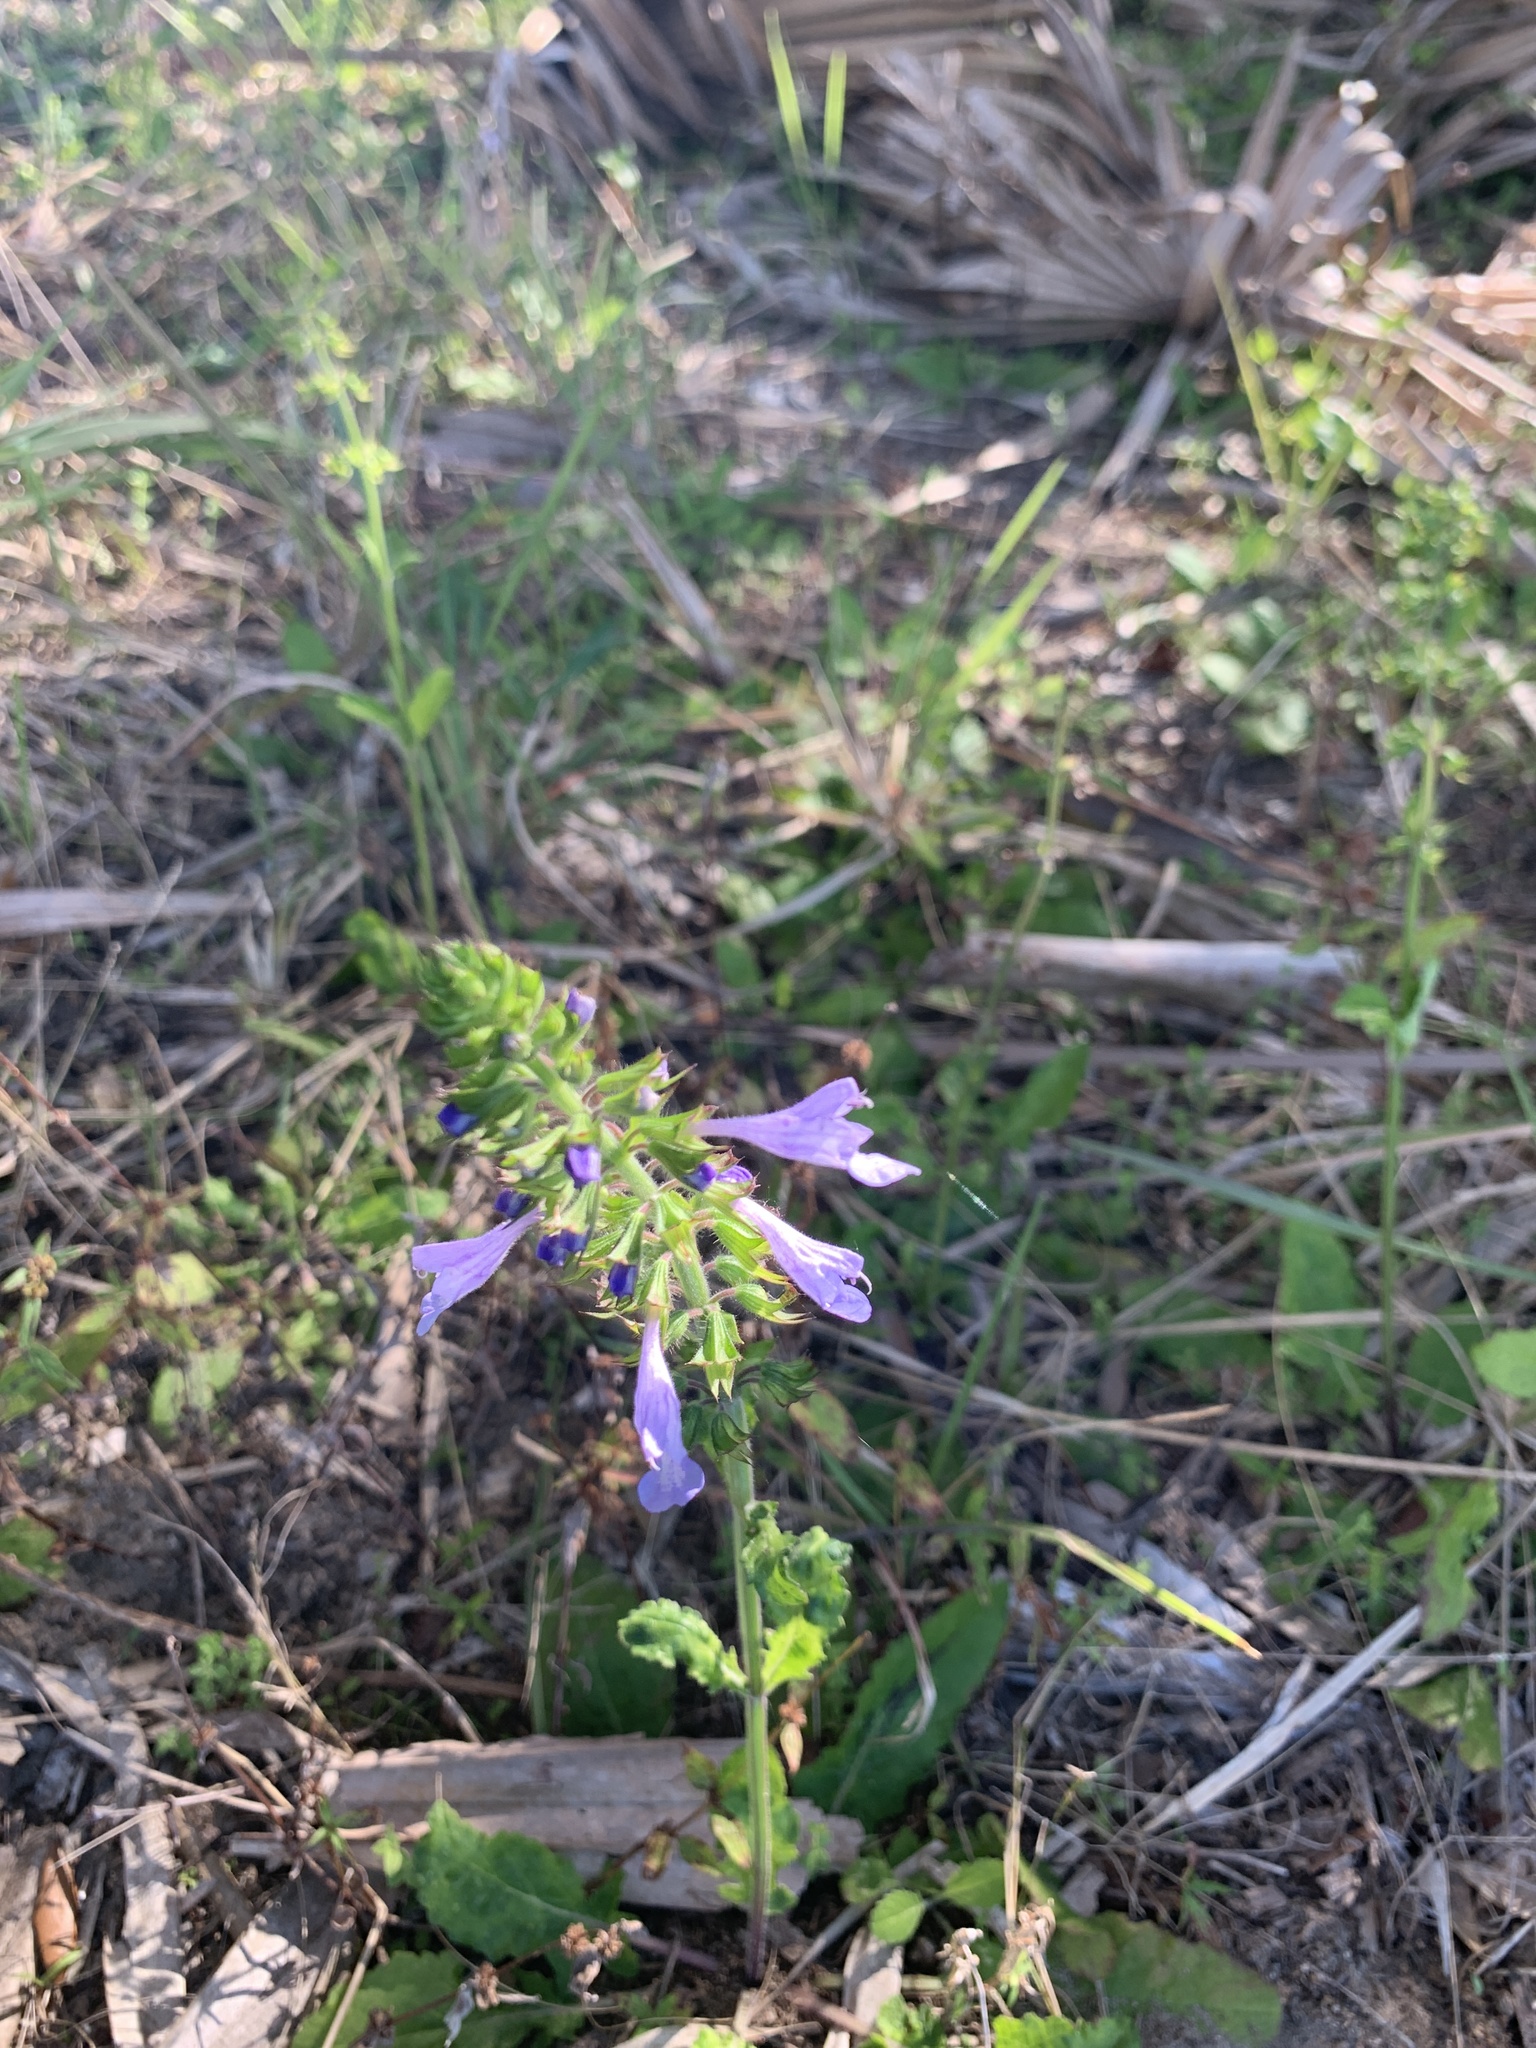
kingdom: Plantae
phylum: Tracheophyta
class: Magnoliopsida
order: Lamiales
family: Lamiaceae
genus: Salvia
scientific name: Salvia lyrata
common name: Cancerweed
